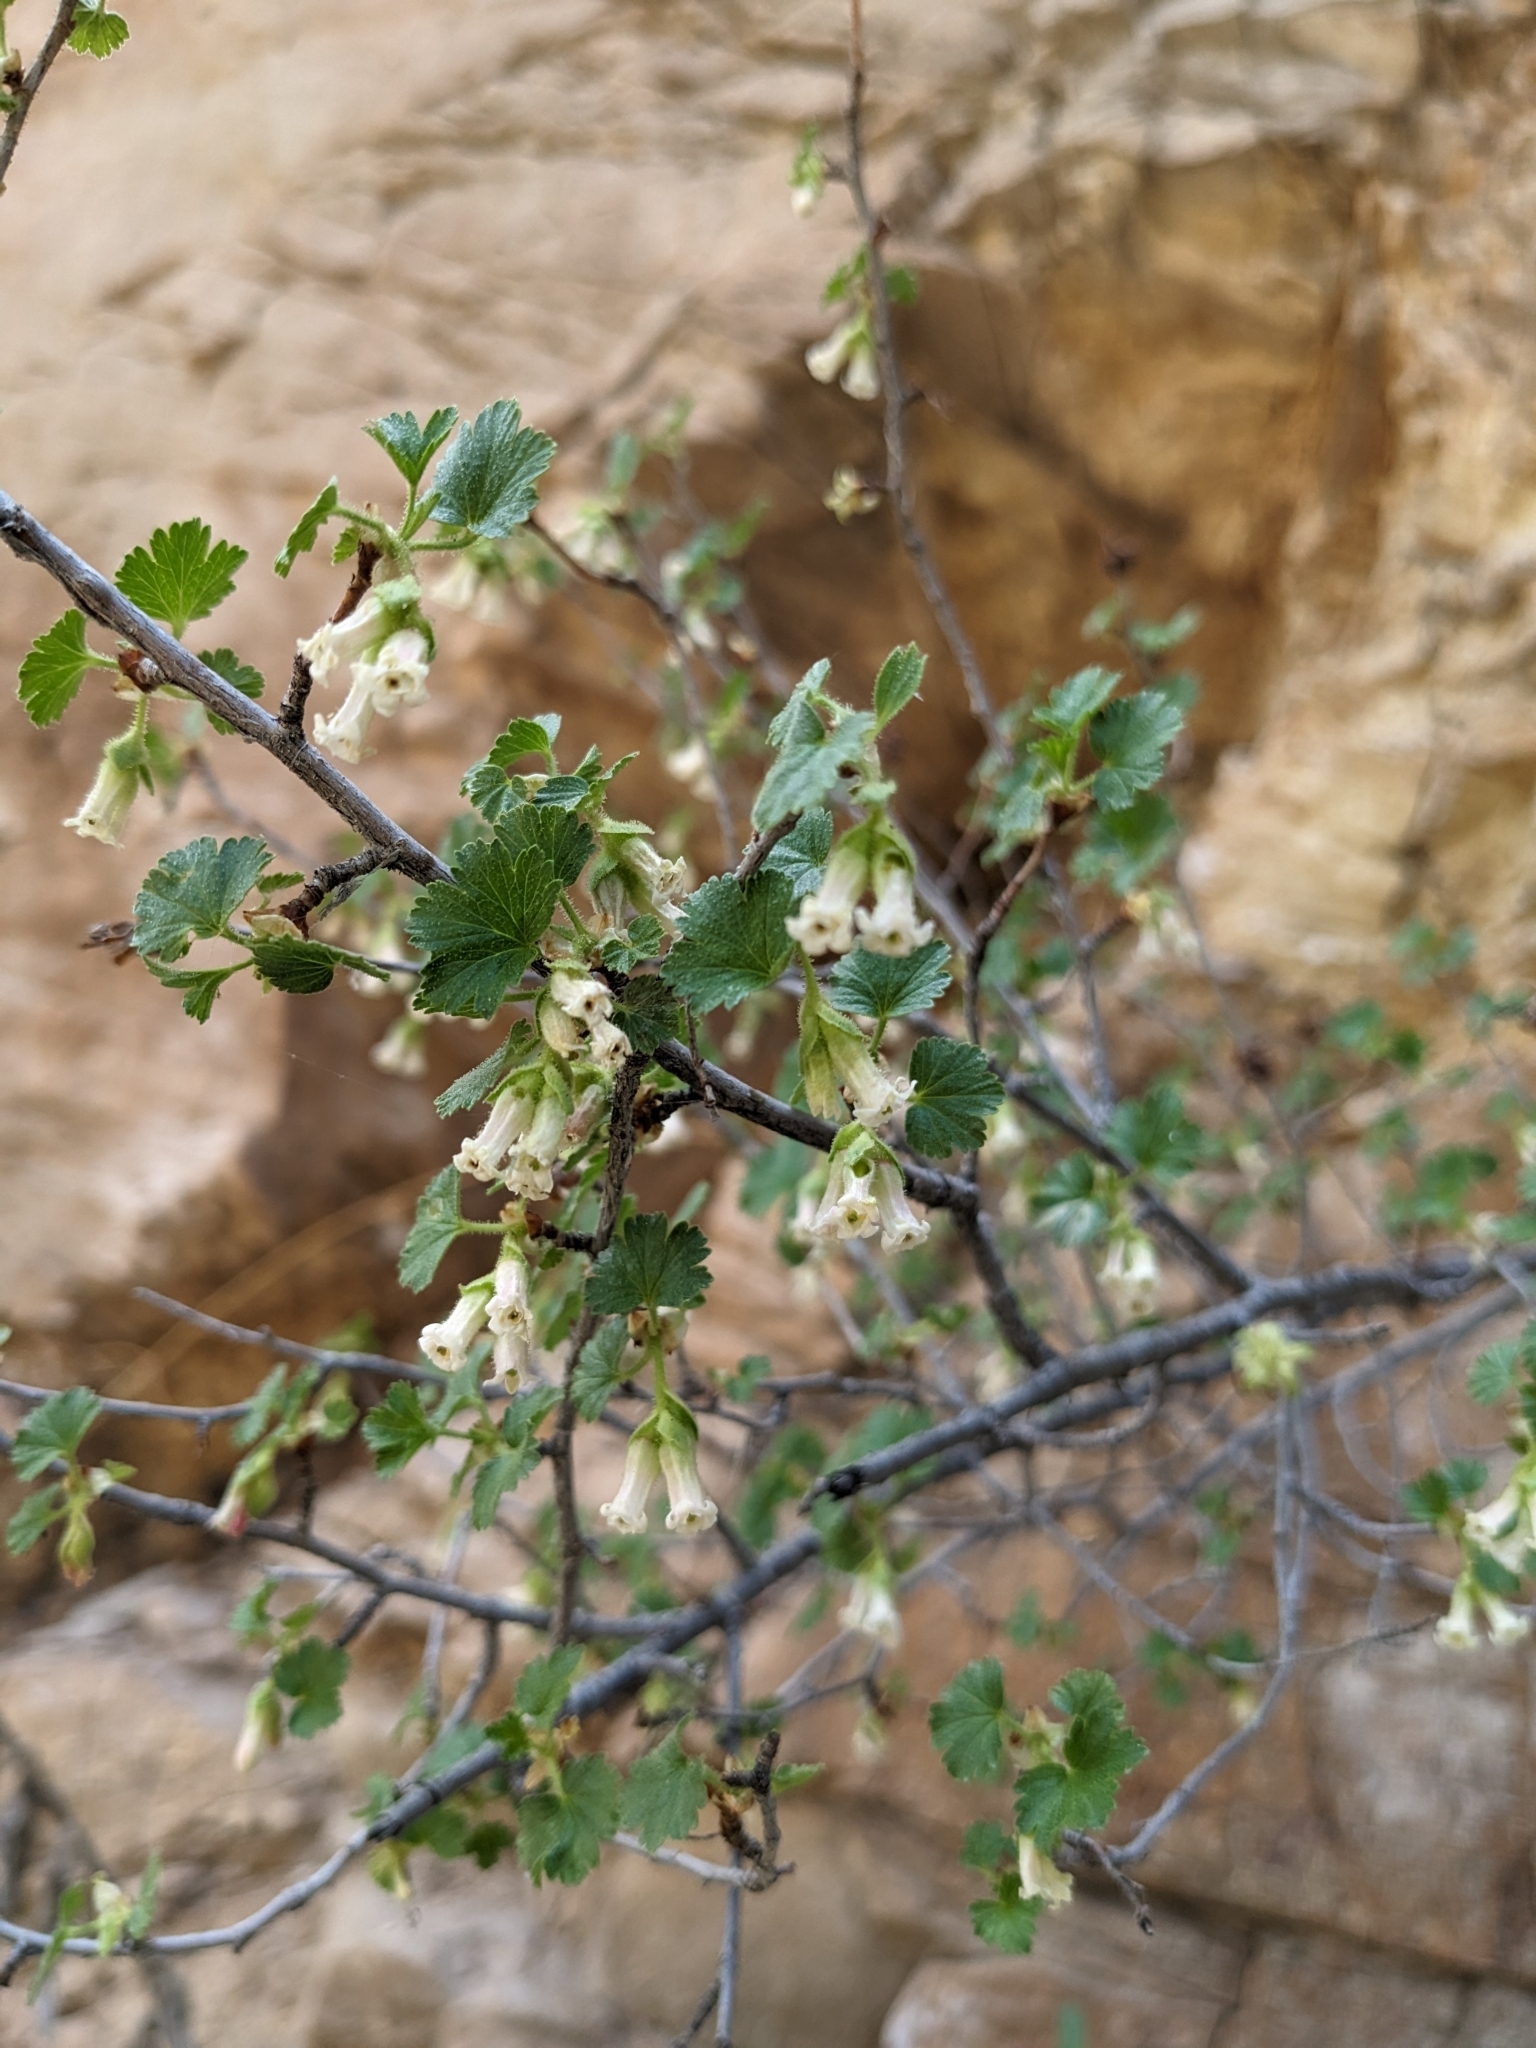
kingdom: Plantae
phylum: Tracheophyta
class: Magnoliopsida
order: Saxifragales
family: Grossulariaceae
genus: Ribes
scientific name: Ribes cereum
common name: Wax currant
